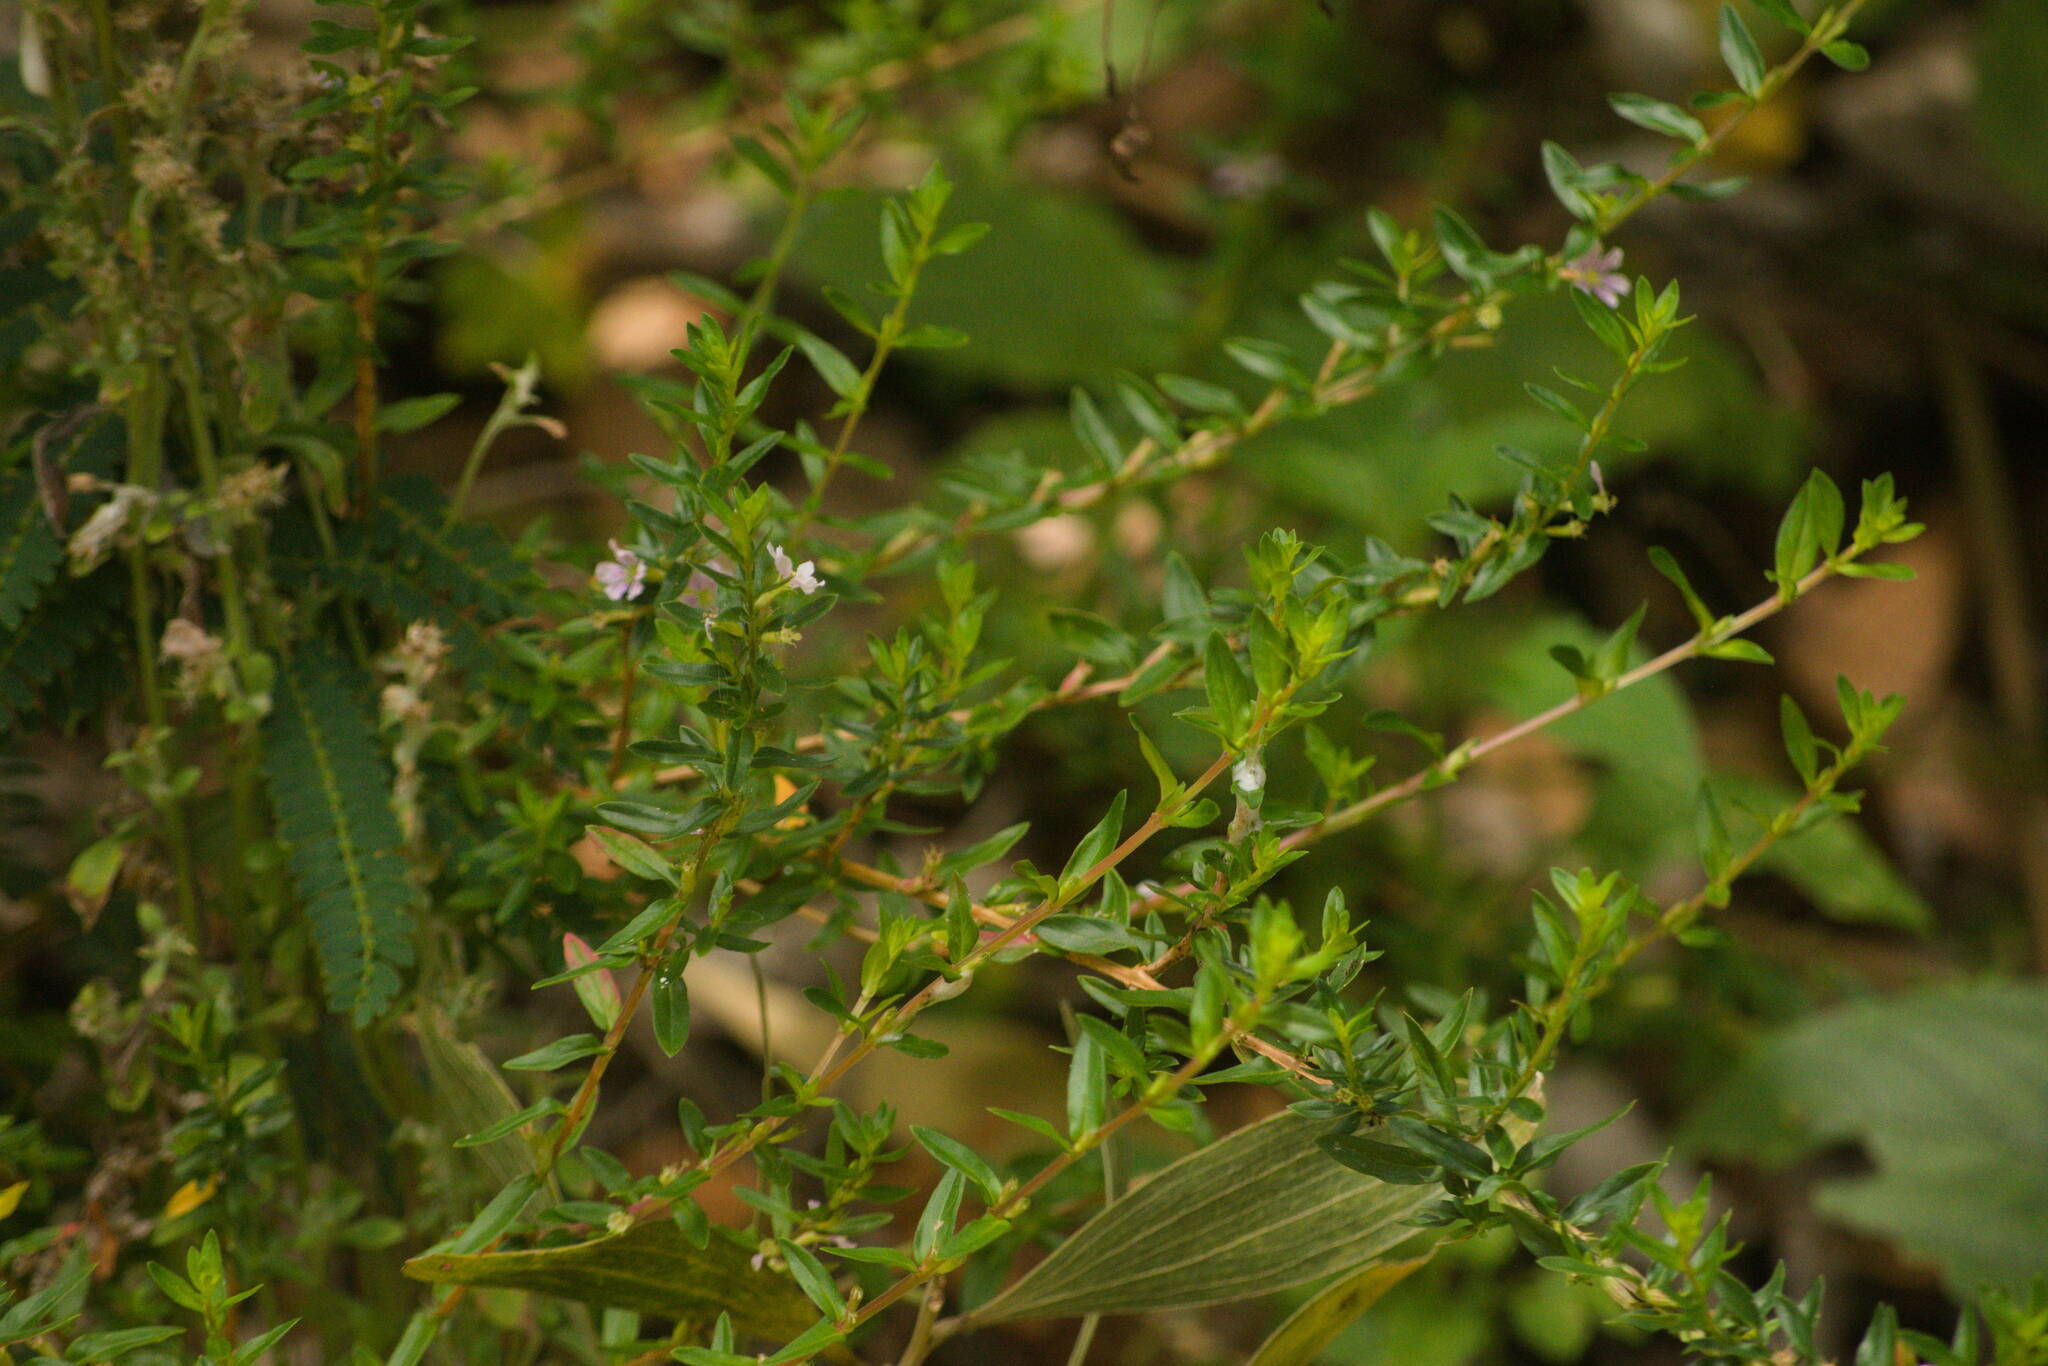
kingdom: Plantae
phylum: Tracheophyta
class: Magnoliopsida
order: Myrtales
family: Lythraceae
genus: Lythrum
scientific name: Lythrum maritimum
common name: Pukamole
